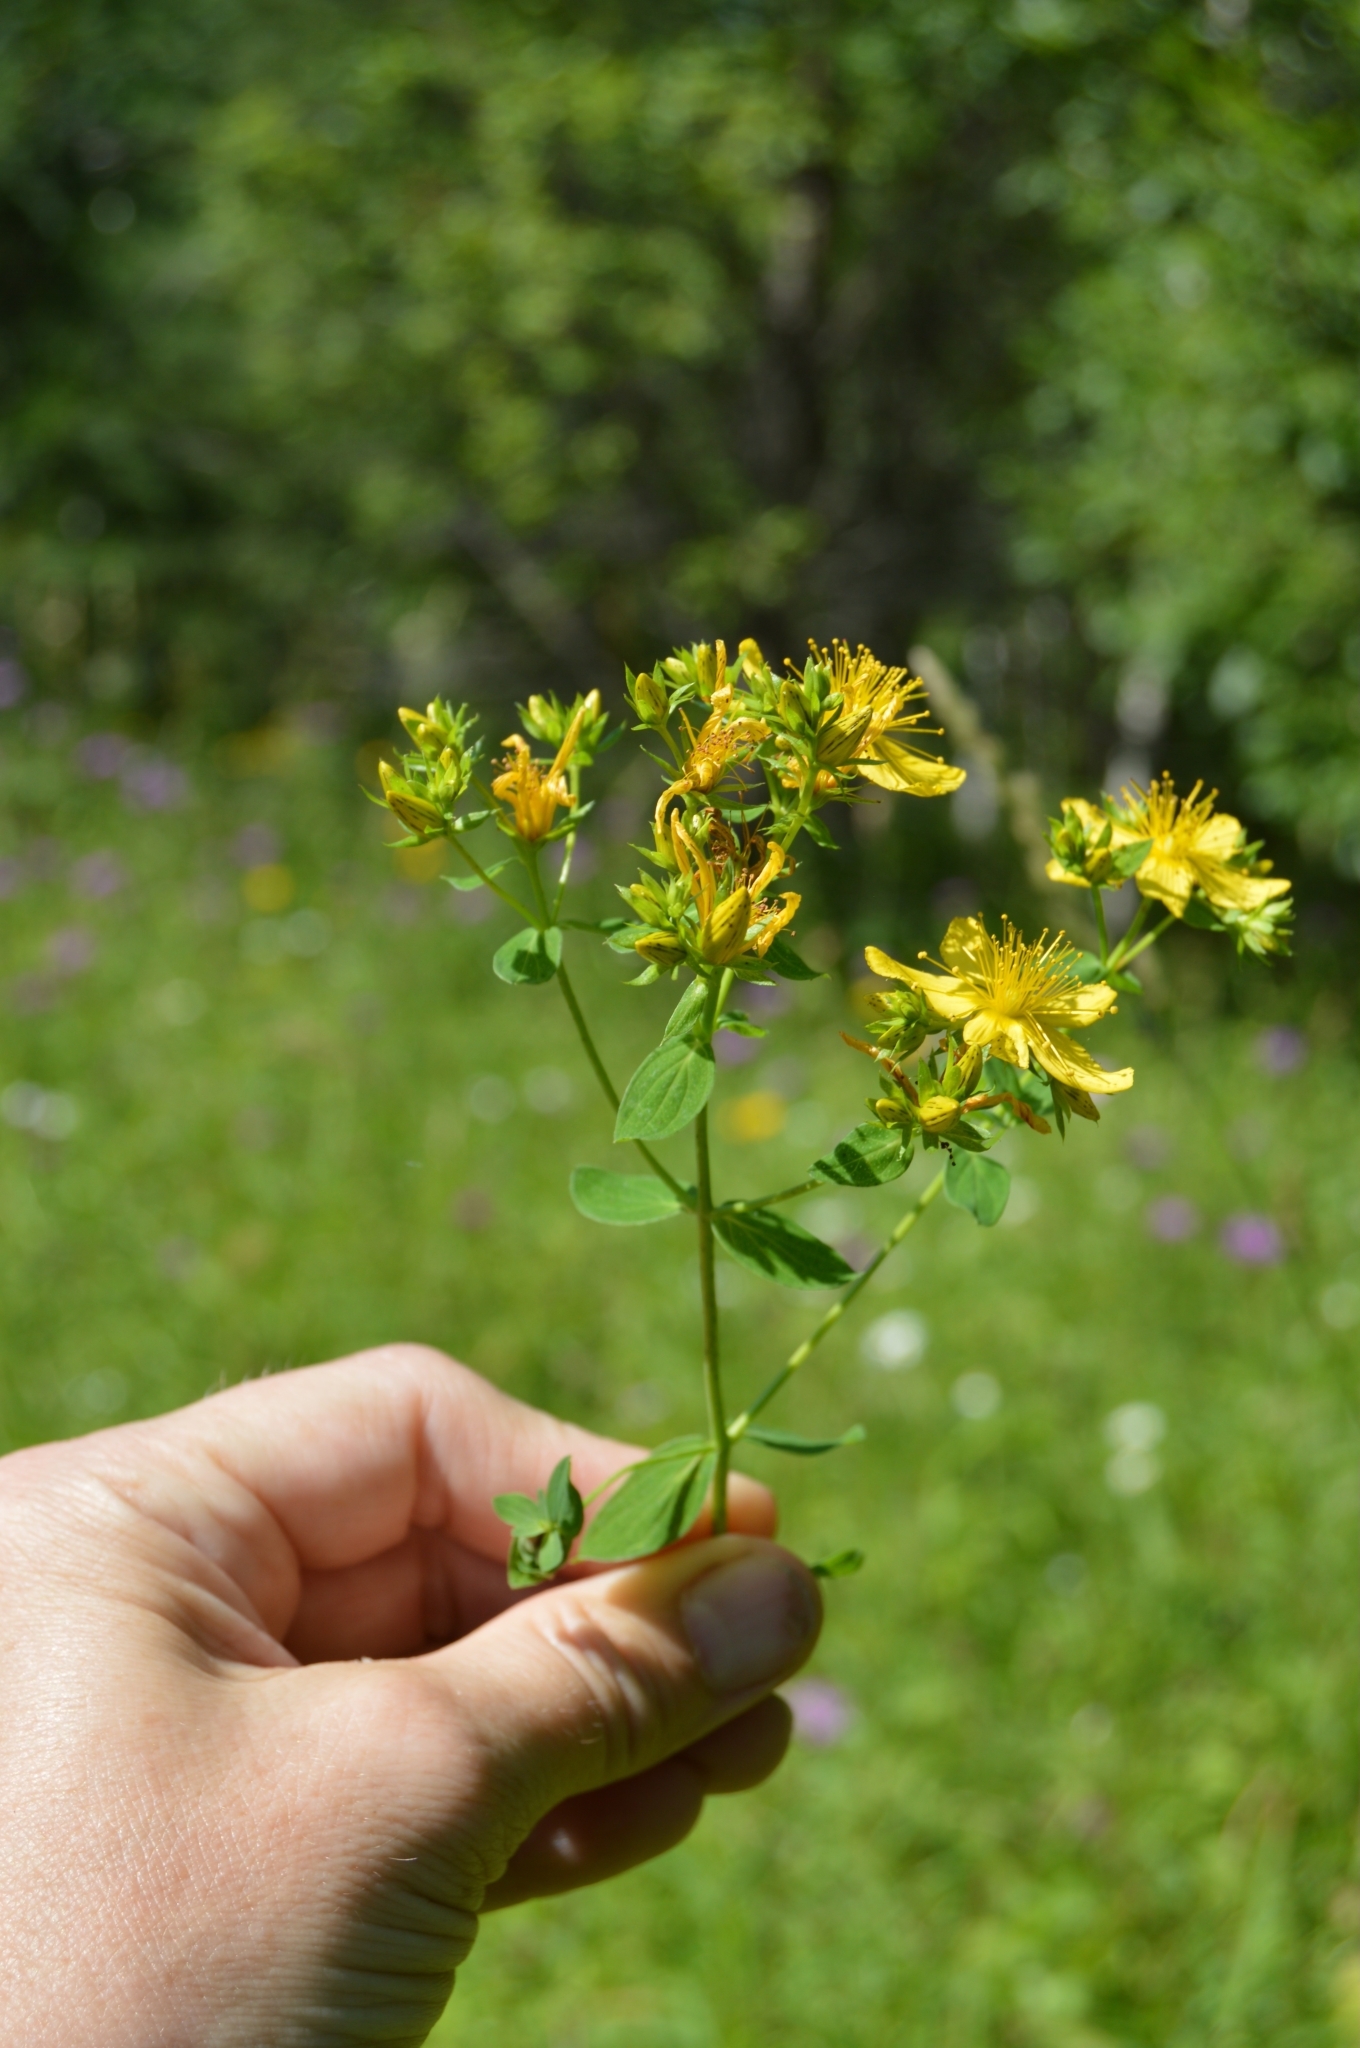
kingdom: Plantae
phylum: Tracheophyta
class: Magnoliopsida
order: Malpighiales
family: Hypericaceae
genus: Hypericum
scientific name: Hypericum perforatum
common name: Common st. johnswort
